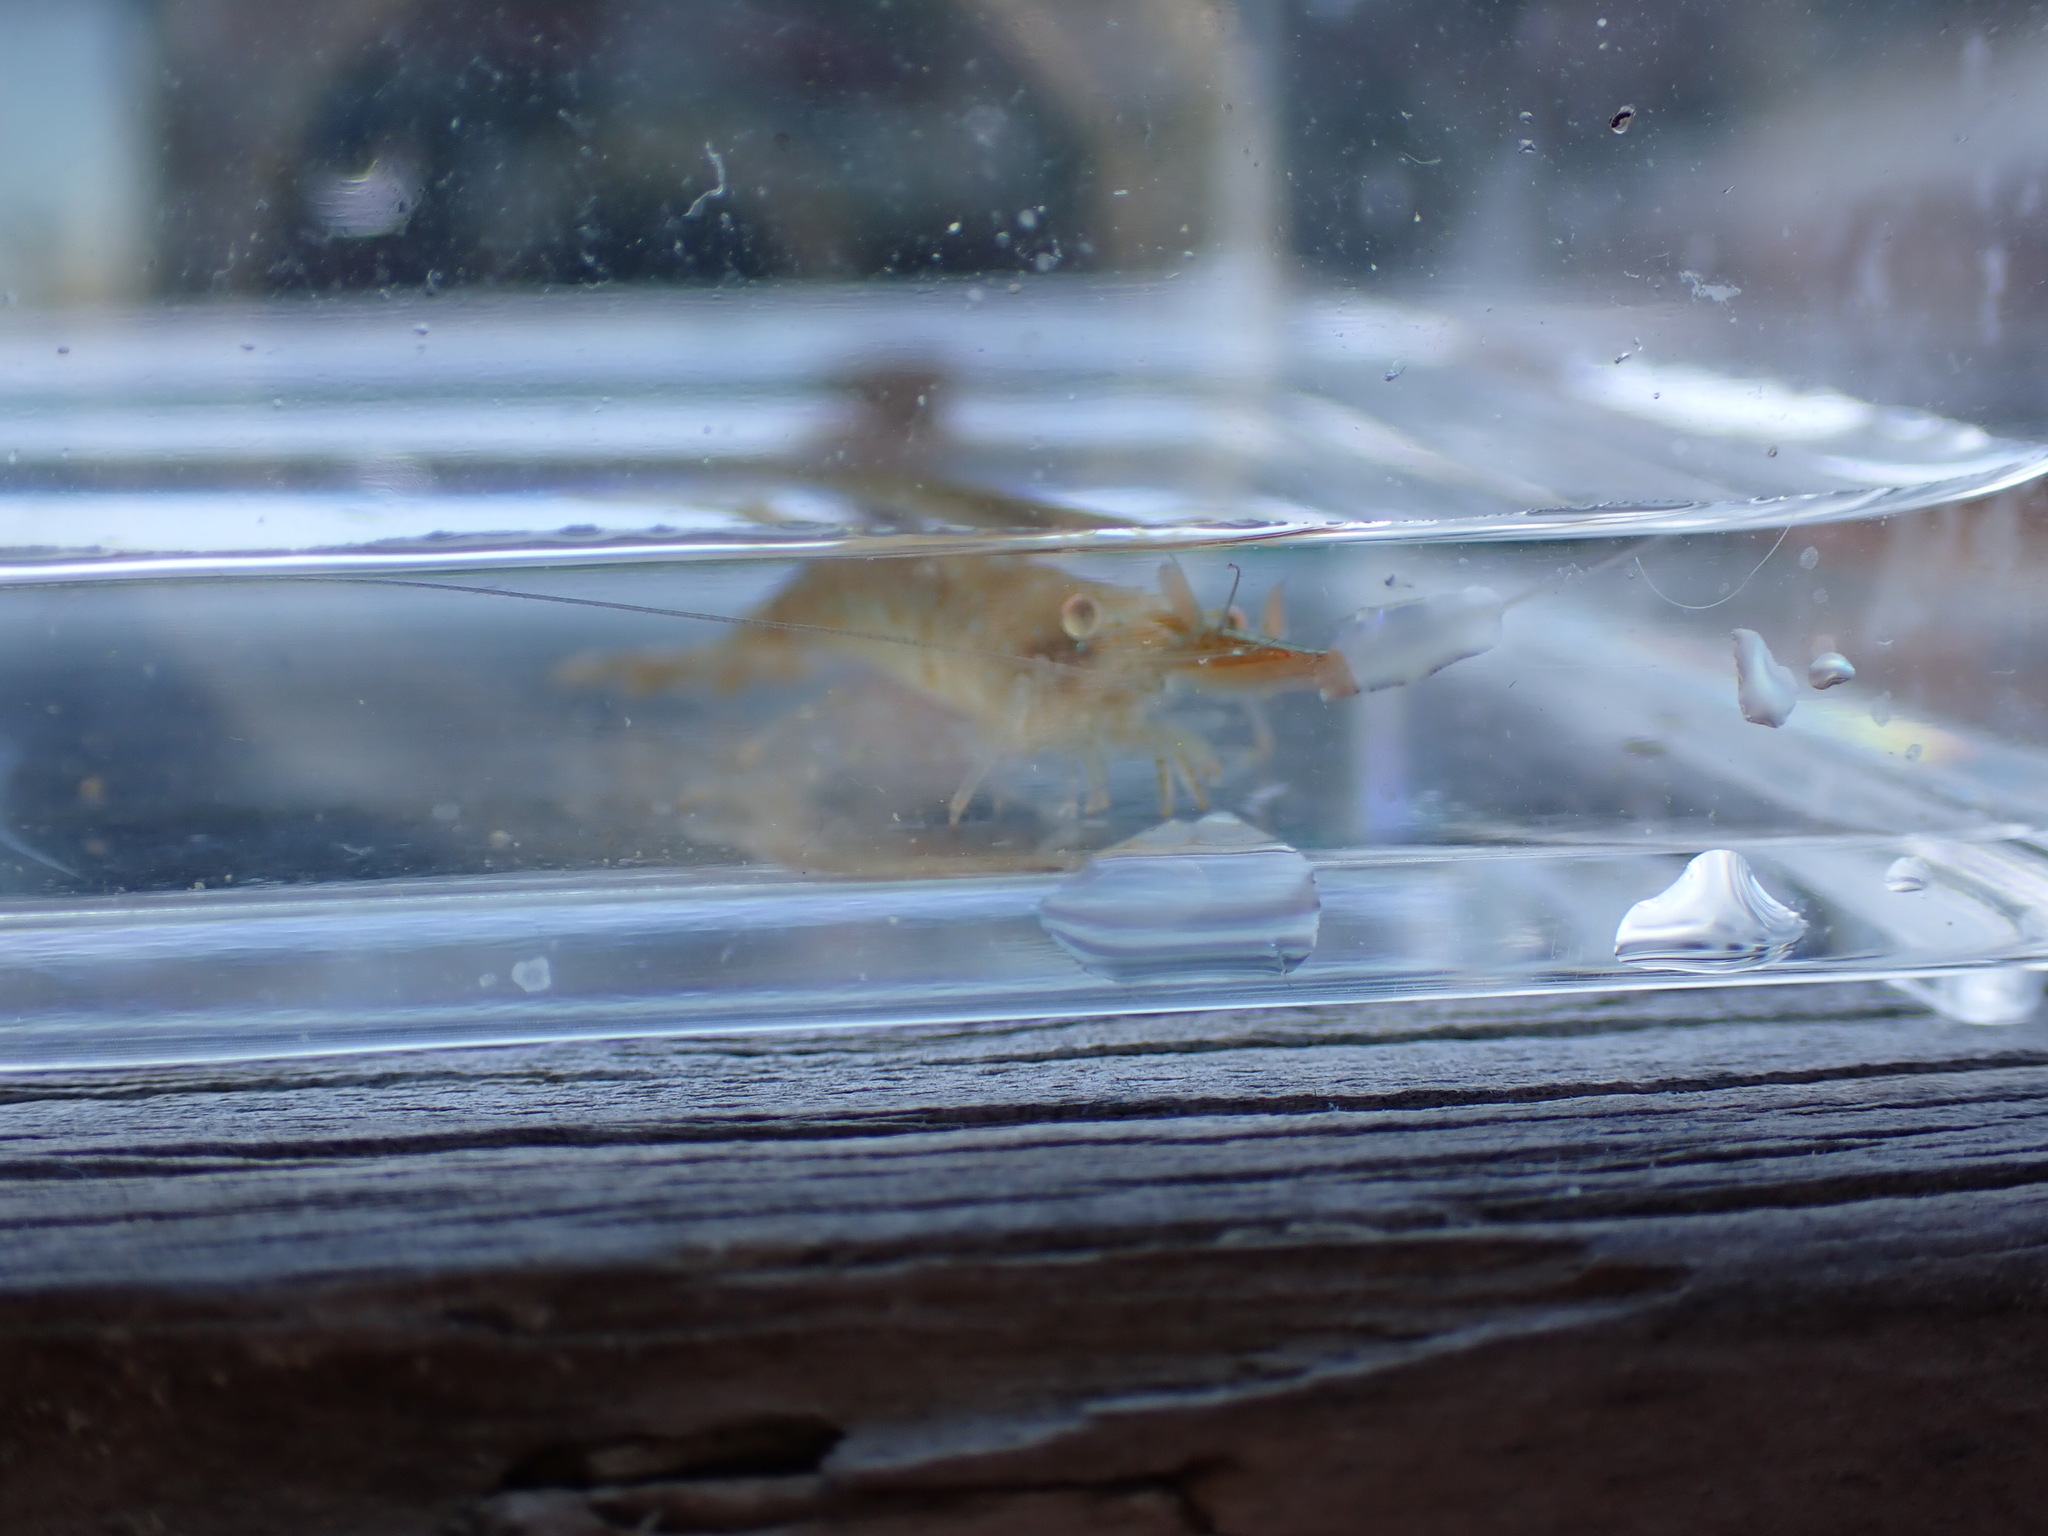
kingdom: Animalia
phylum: Arthropoda
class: Malacostraca
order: Decapoda
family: Thoridae
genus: Heptacarpus
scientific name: Heptacarpus stylus
